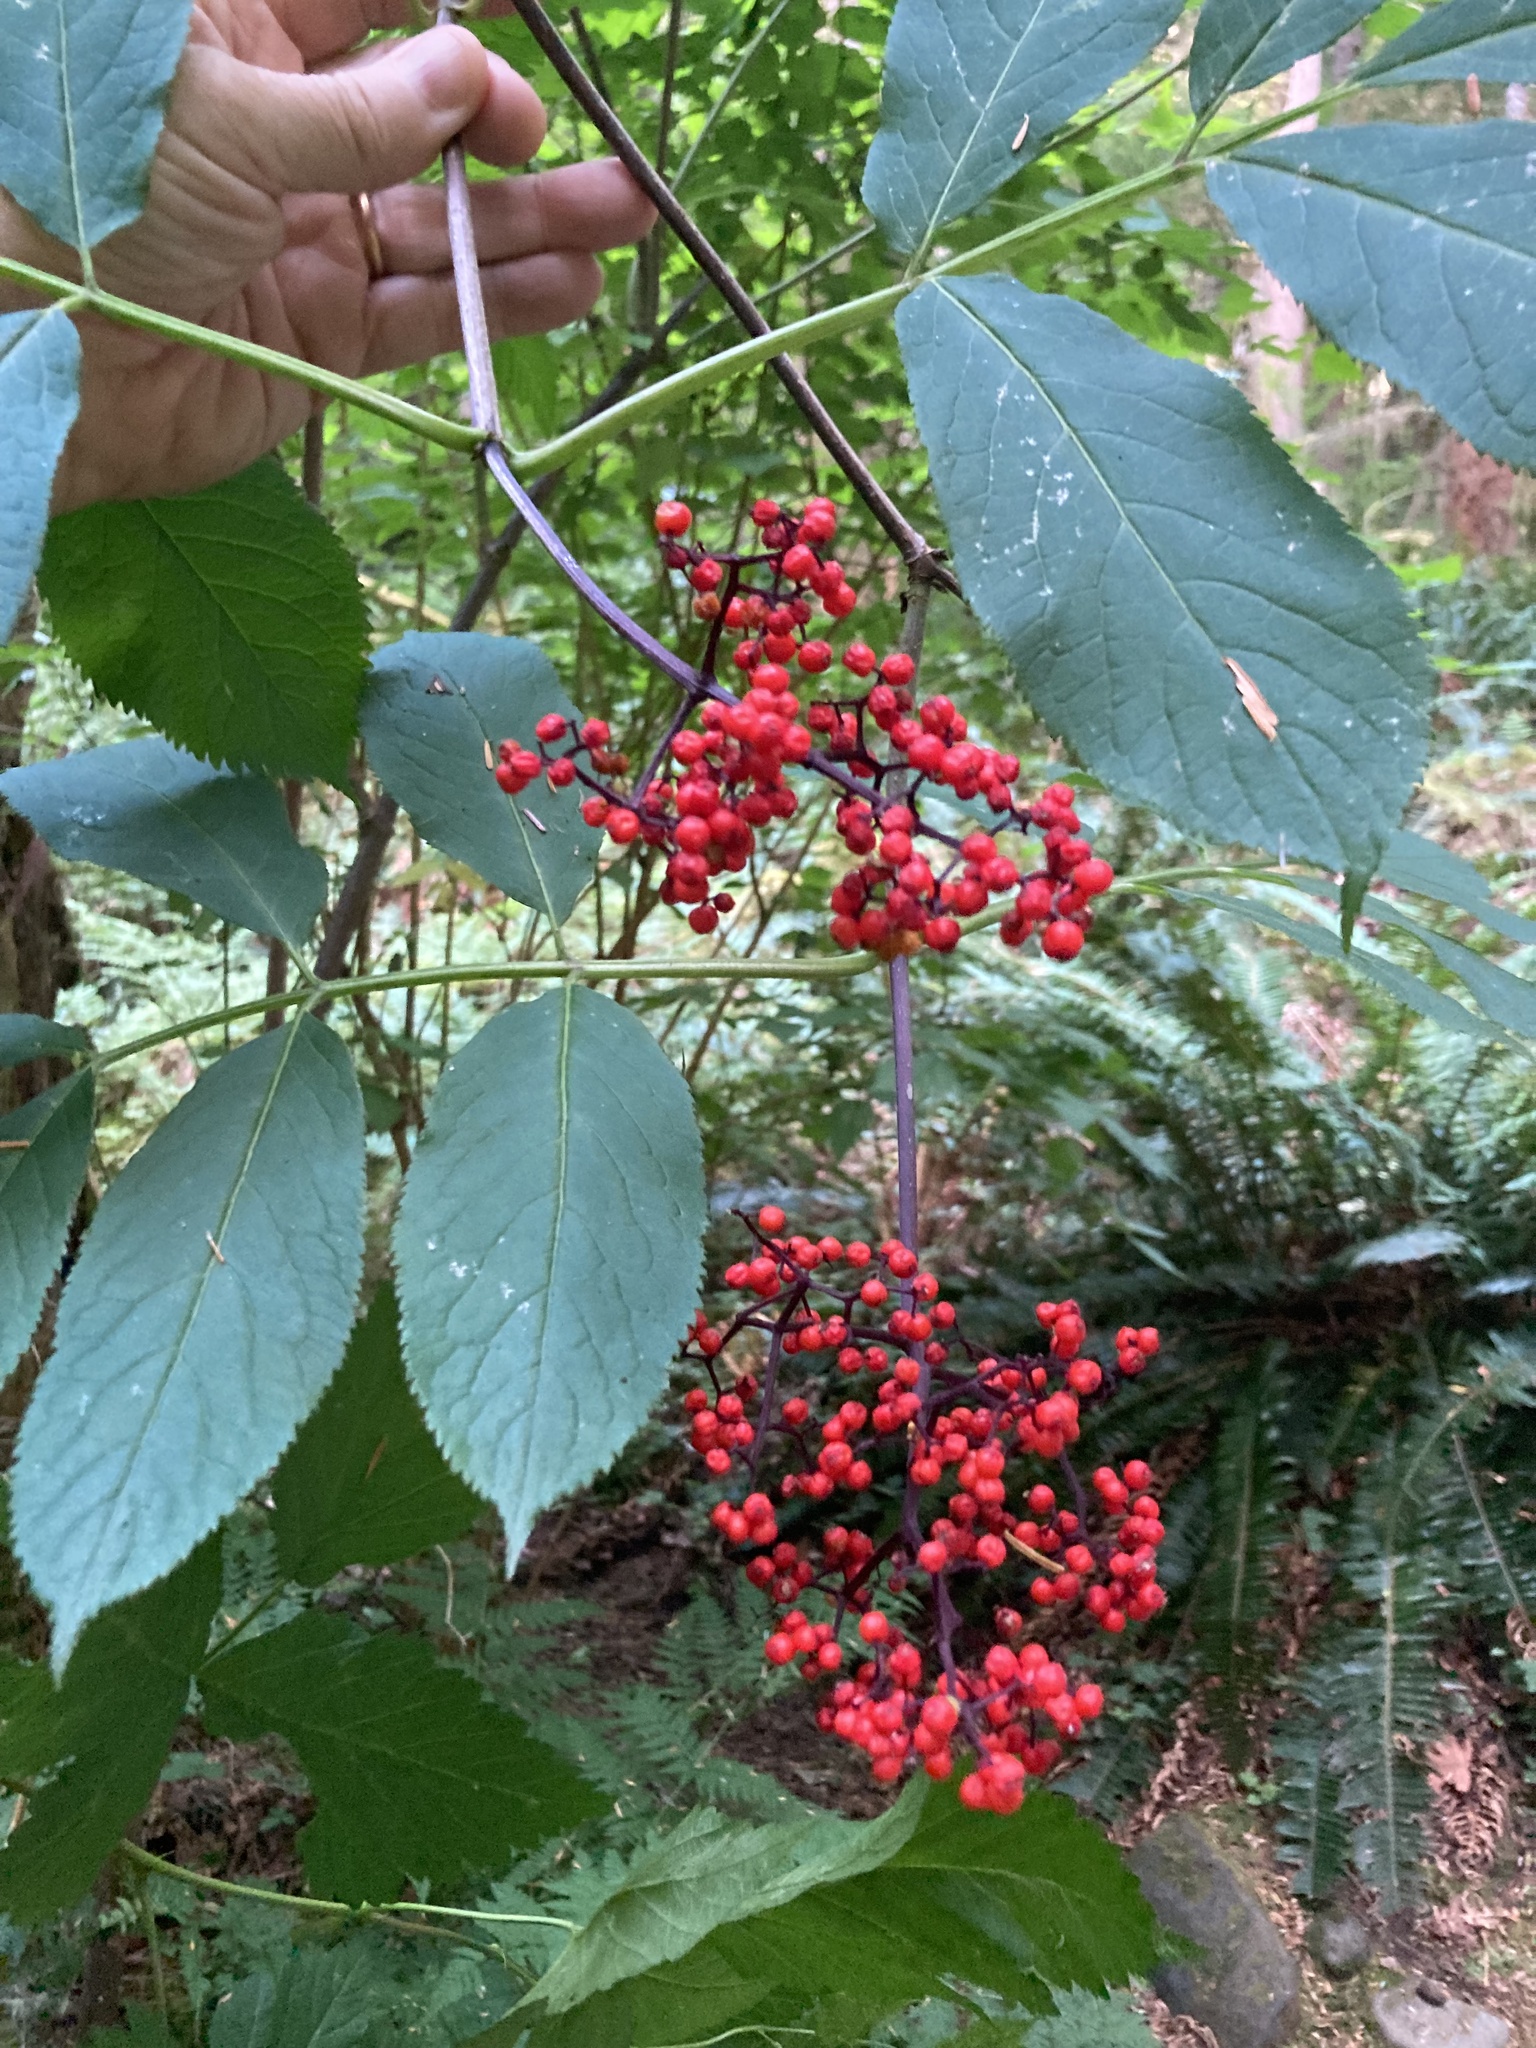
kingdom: Plantae
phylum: Tracheophyta
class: Magnoliopsida
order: Dipsacales
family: Viburnaceae
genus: Sambucus
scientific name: Sambucus racemosa
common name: Red-berried elder
